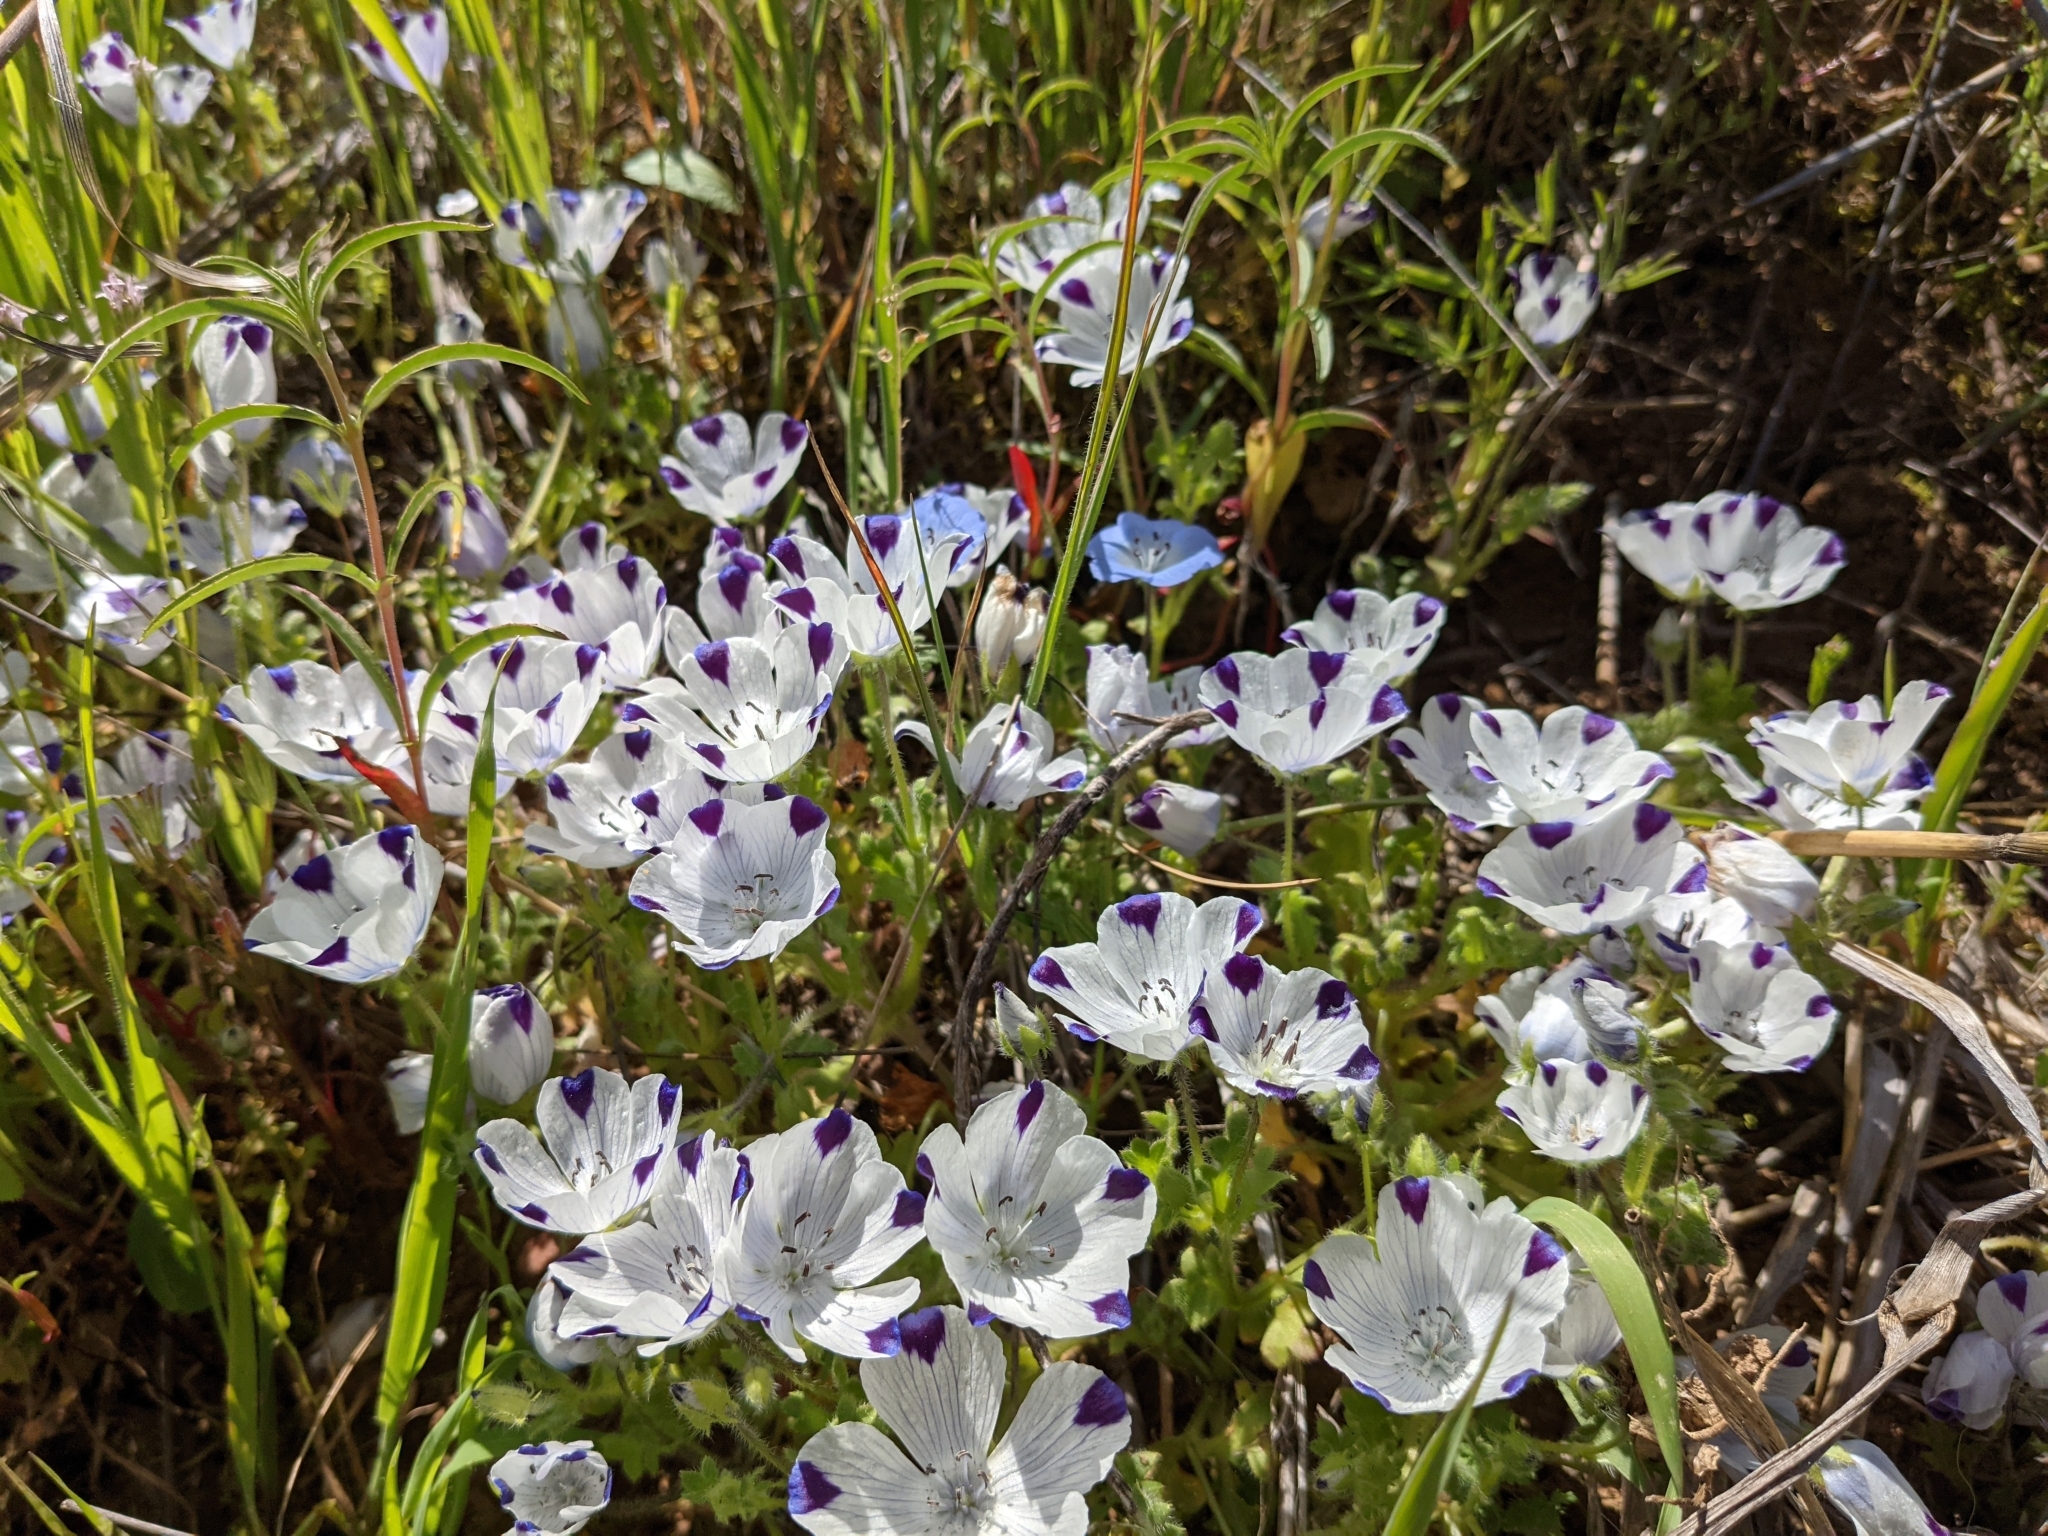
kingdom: Plantae
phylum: Tracheophyta
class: Magnoliopsida
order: Boraginales
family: Hydrophyllaceae
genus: Nemophila
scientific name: Nemophila maculata
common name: Fivespot
